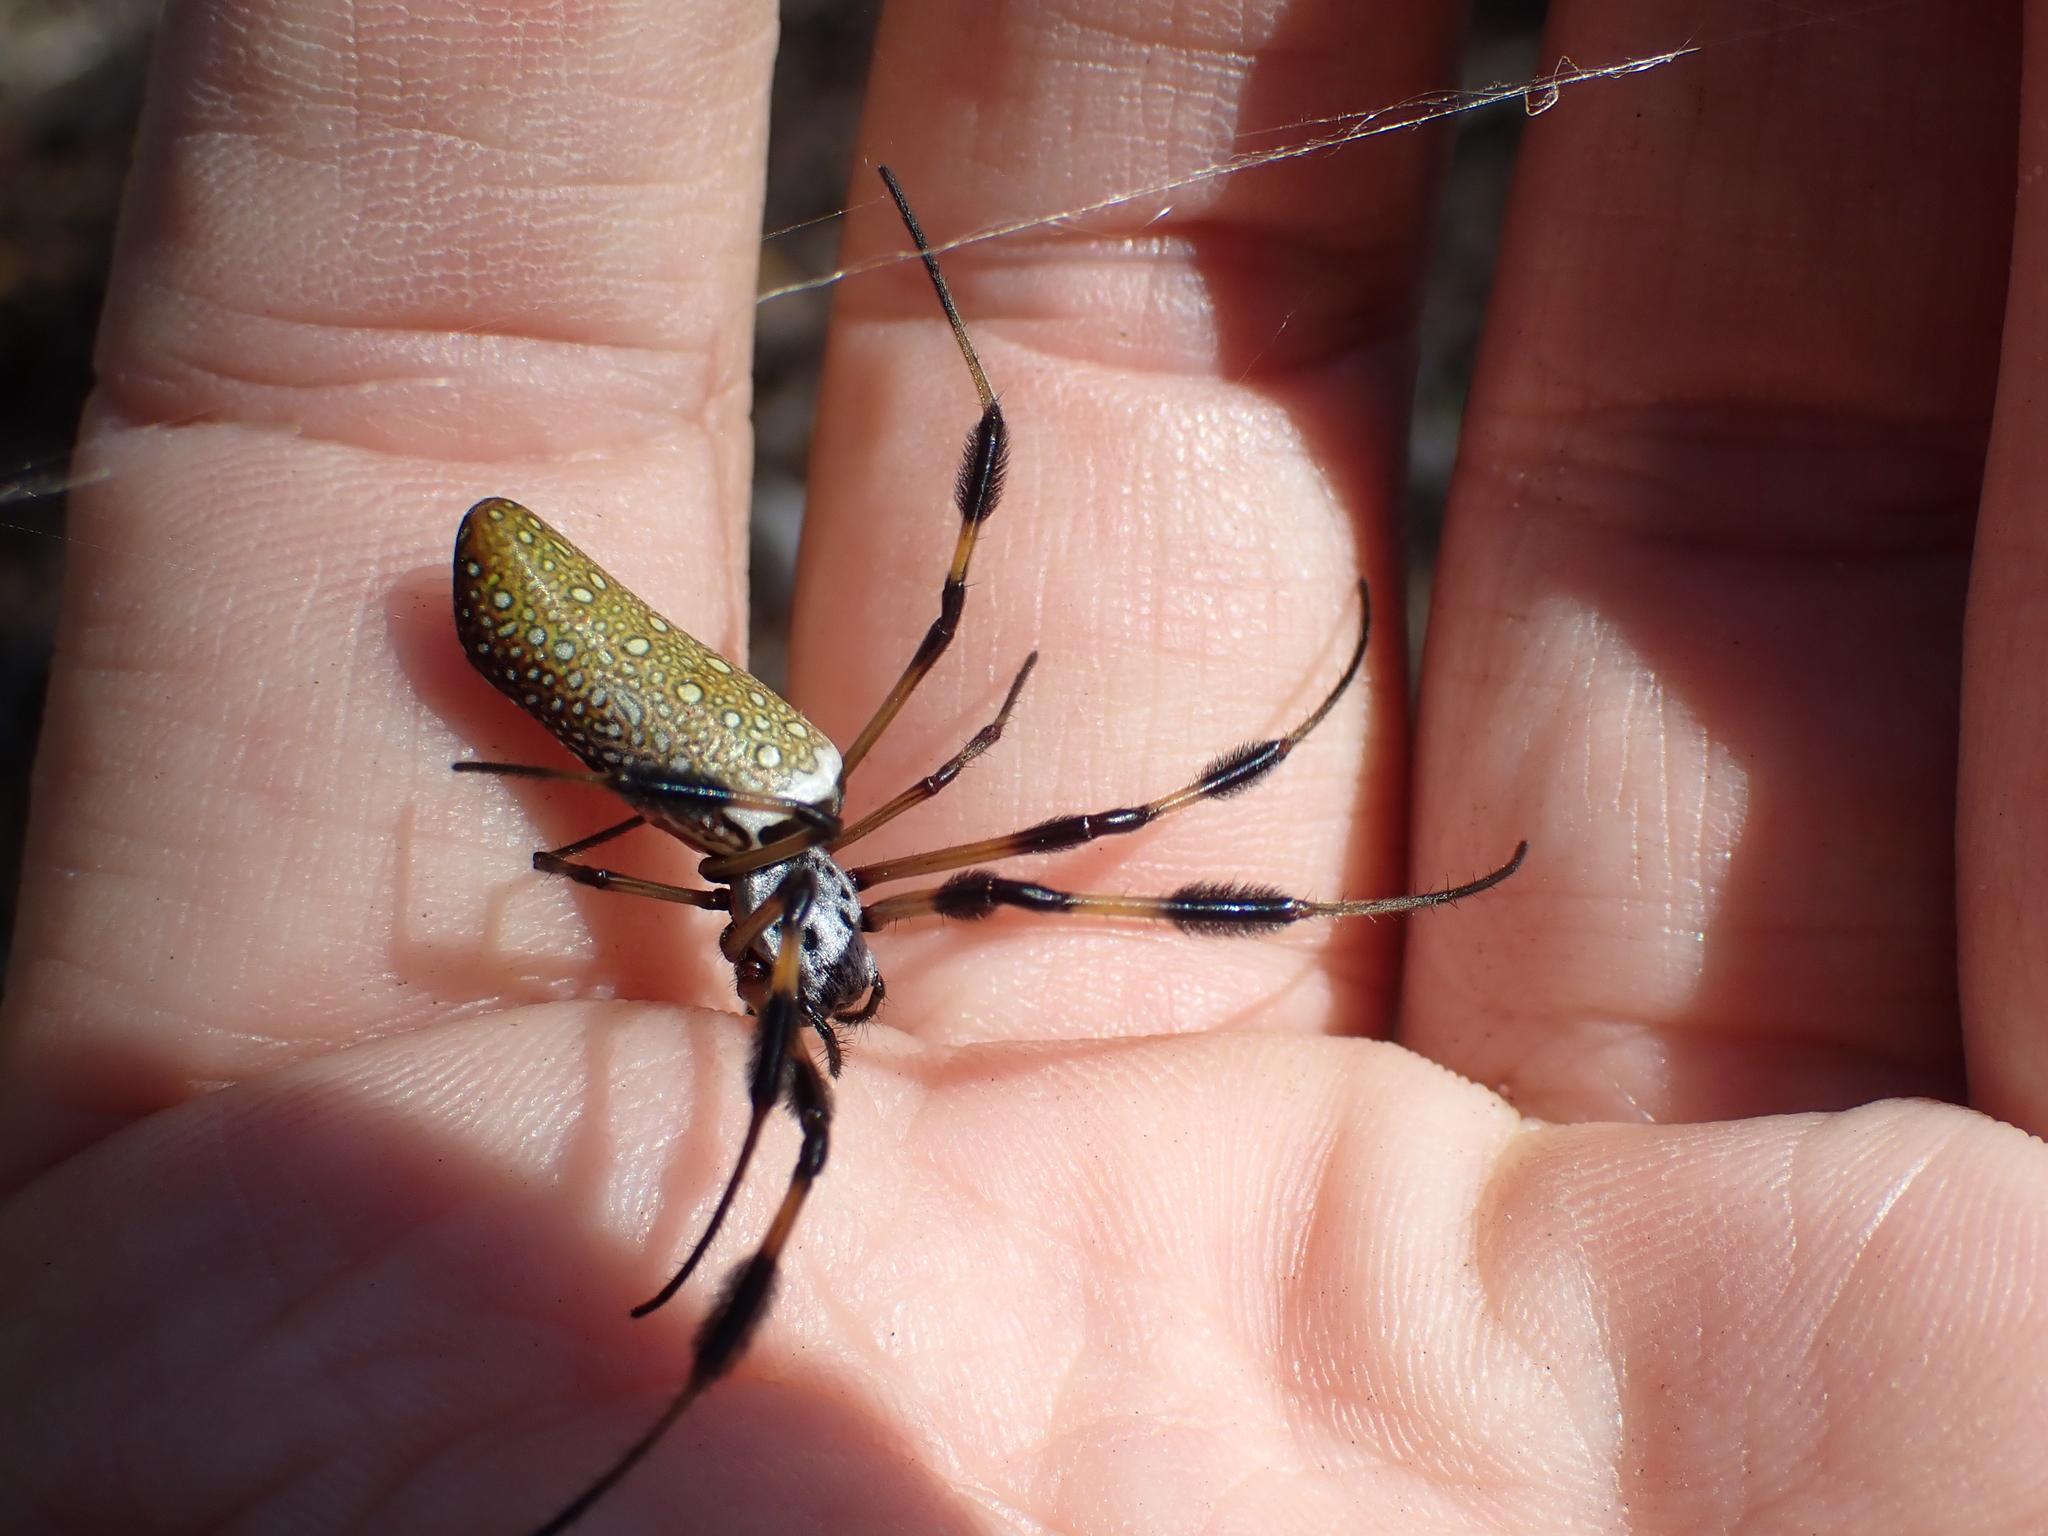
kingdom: Animalia
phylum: Arthropoda
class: Arachnida
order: Araneae
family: Araneidae
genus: Trichonephila
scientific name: Trichonephila clavipes
